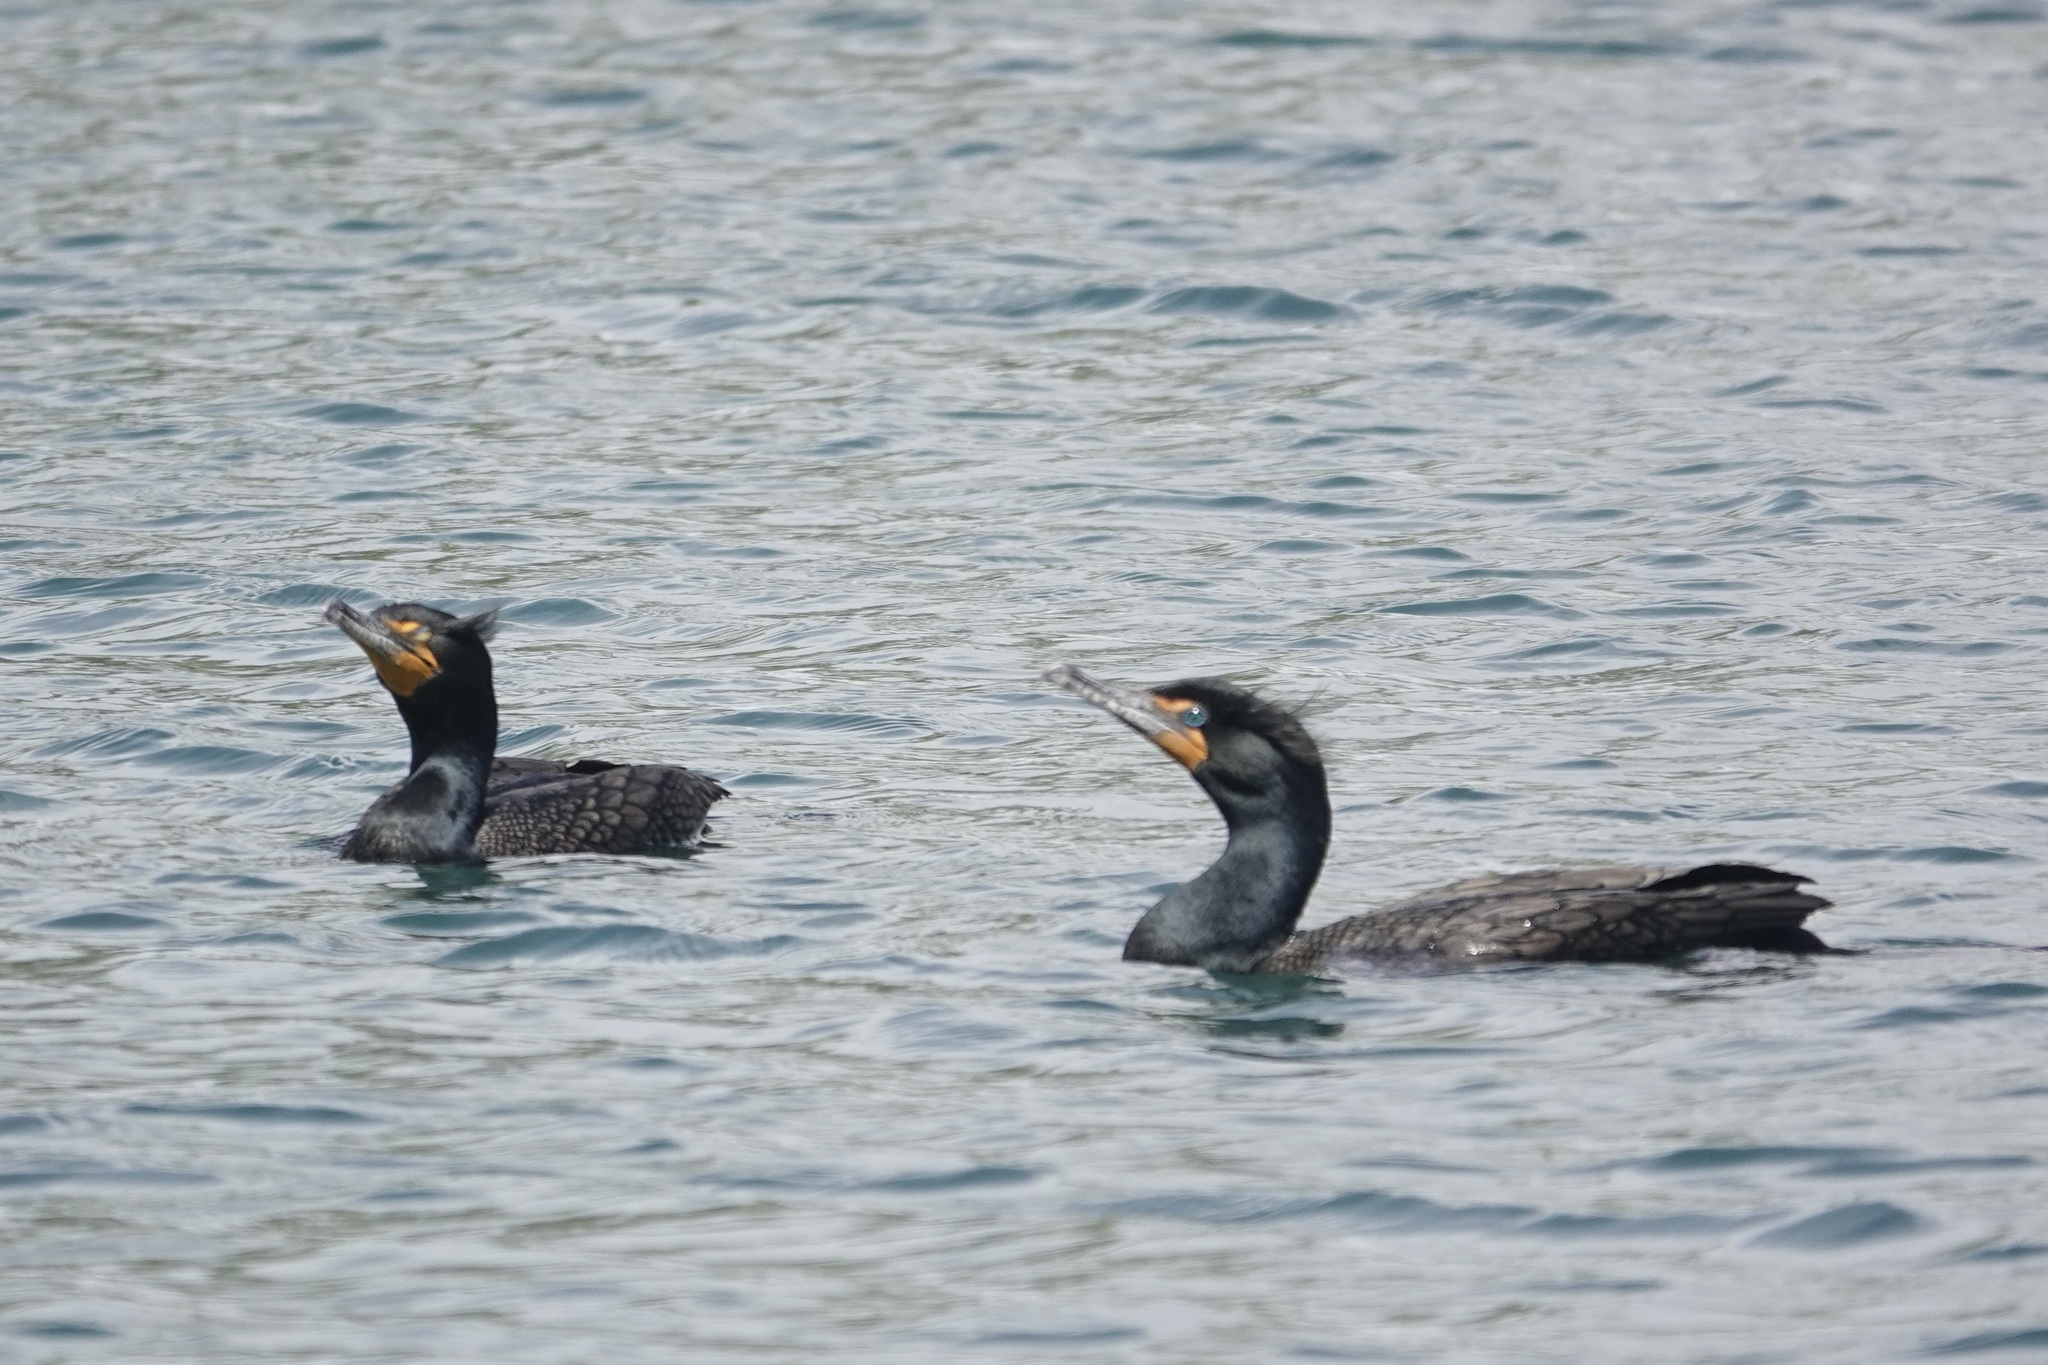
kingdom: Animalia
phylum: Chordata
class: Aves
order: Suliformes
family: Phalacrocoracidae
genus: Phalacrocorax
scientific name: Phalacrocorax auritus
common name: Double-crested cormorant
